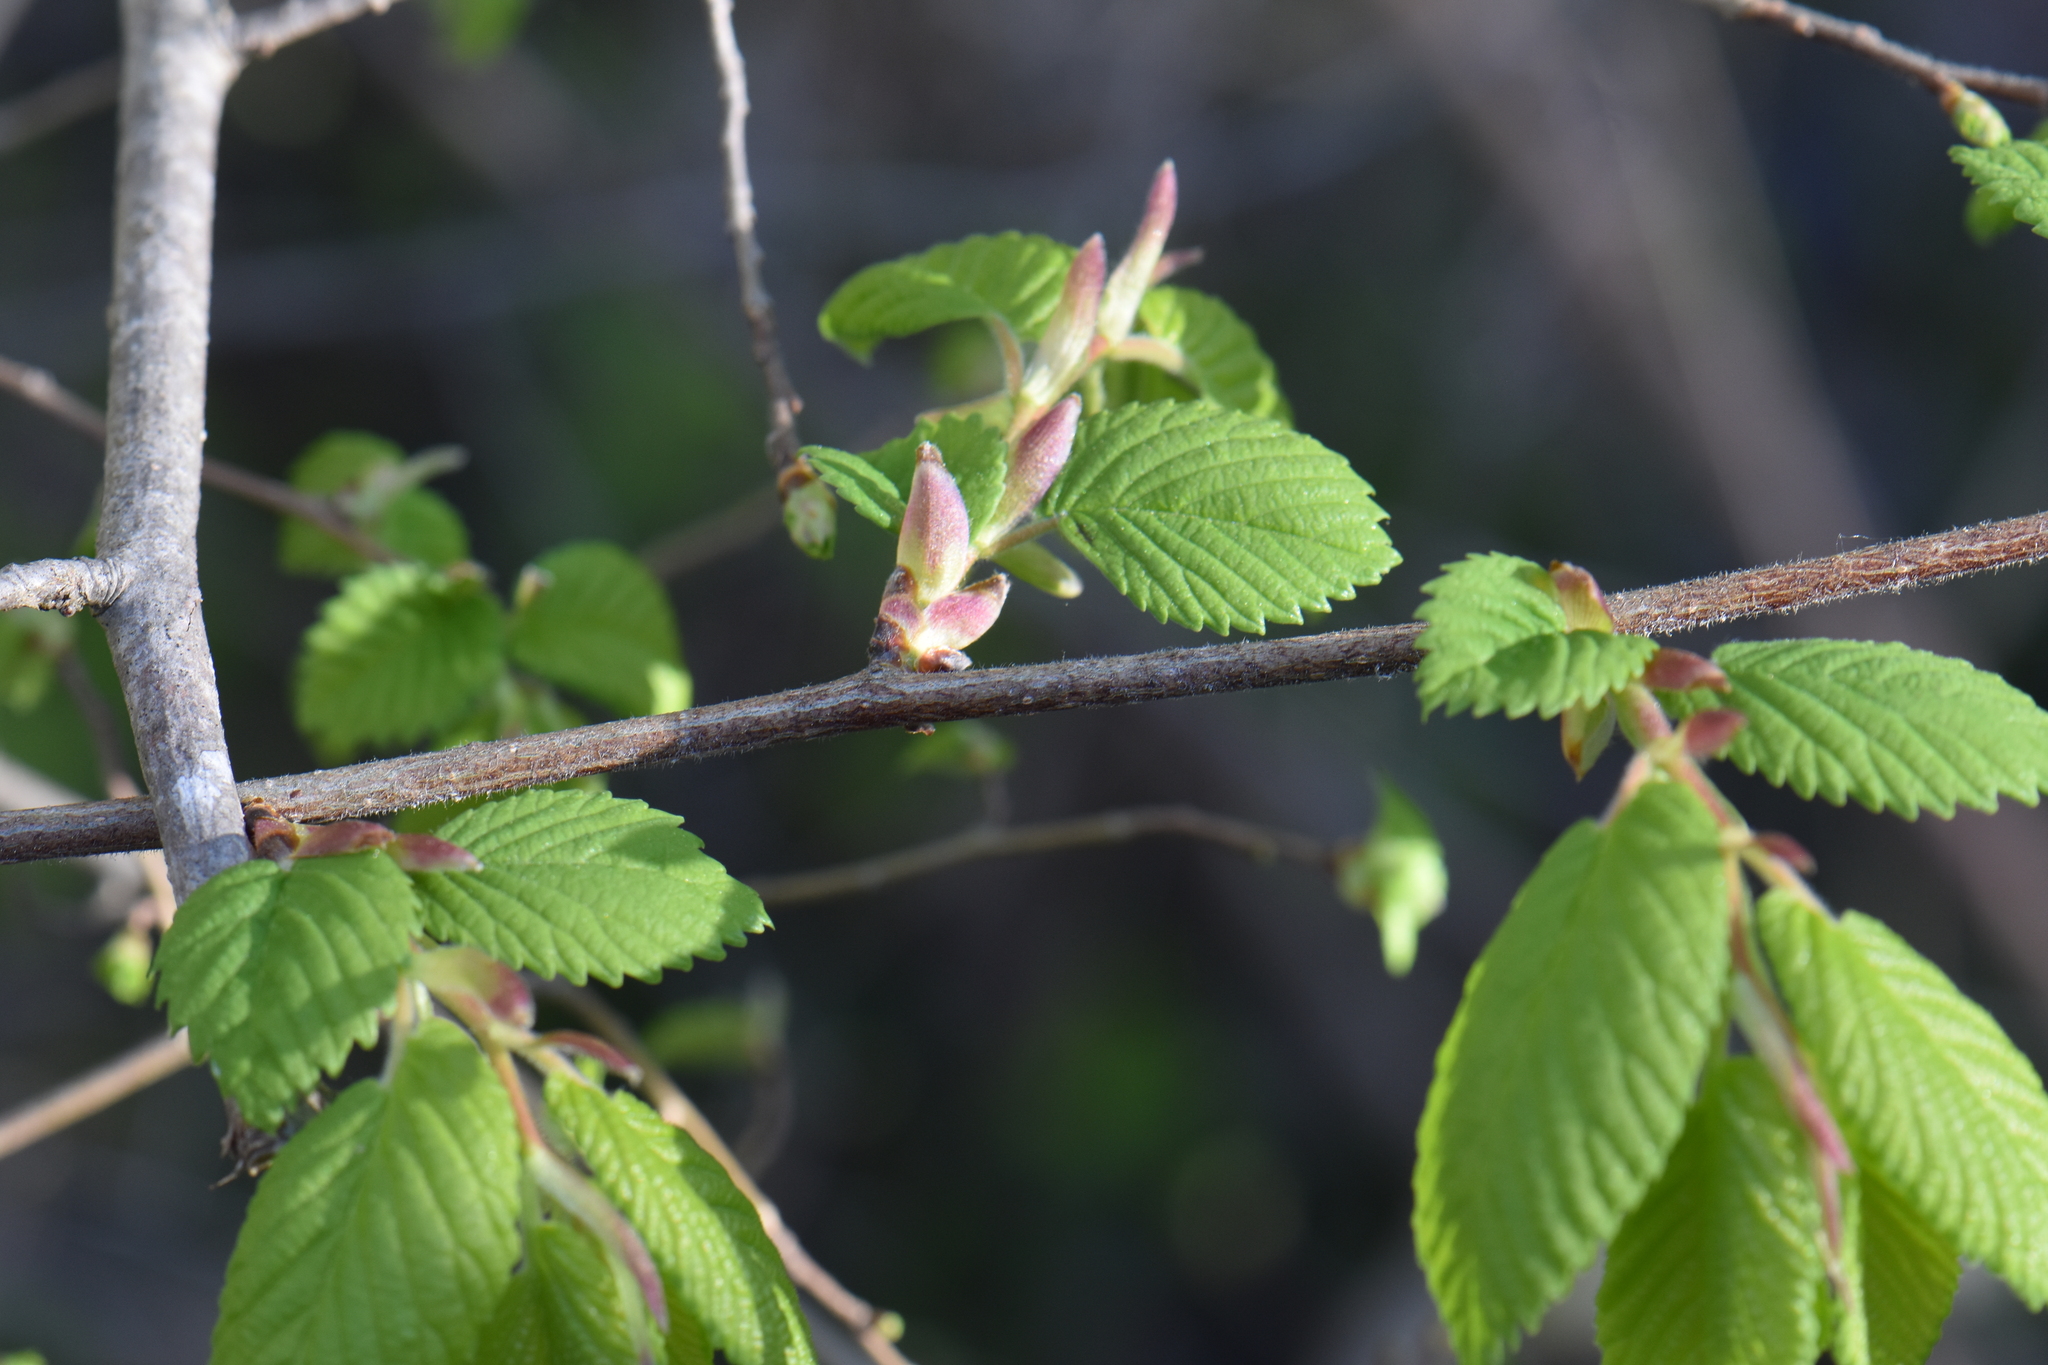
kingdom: Plantae
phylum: Tracheophyta
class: Magnoliopsida
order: Rosales
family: Ulmaceae
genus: Ulmus
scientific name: Ulmus minor
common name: Small-leaved elm
